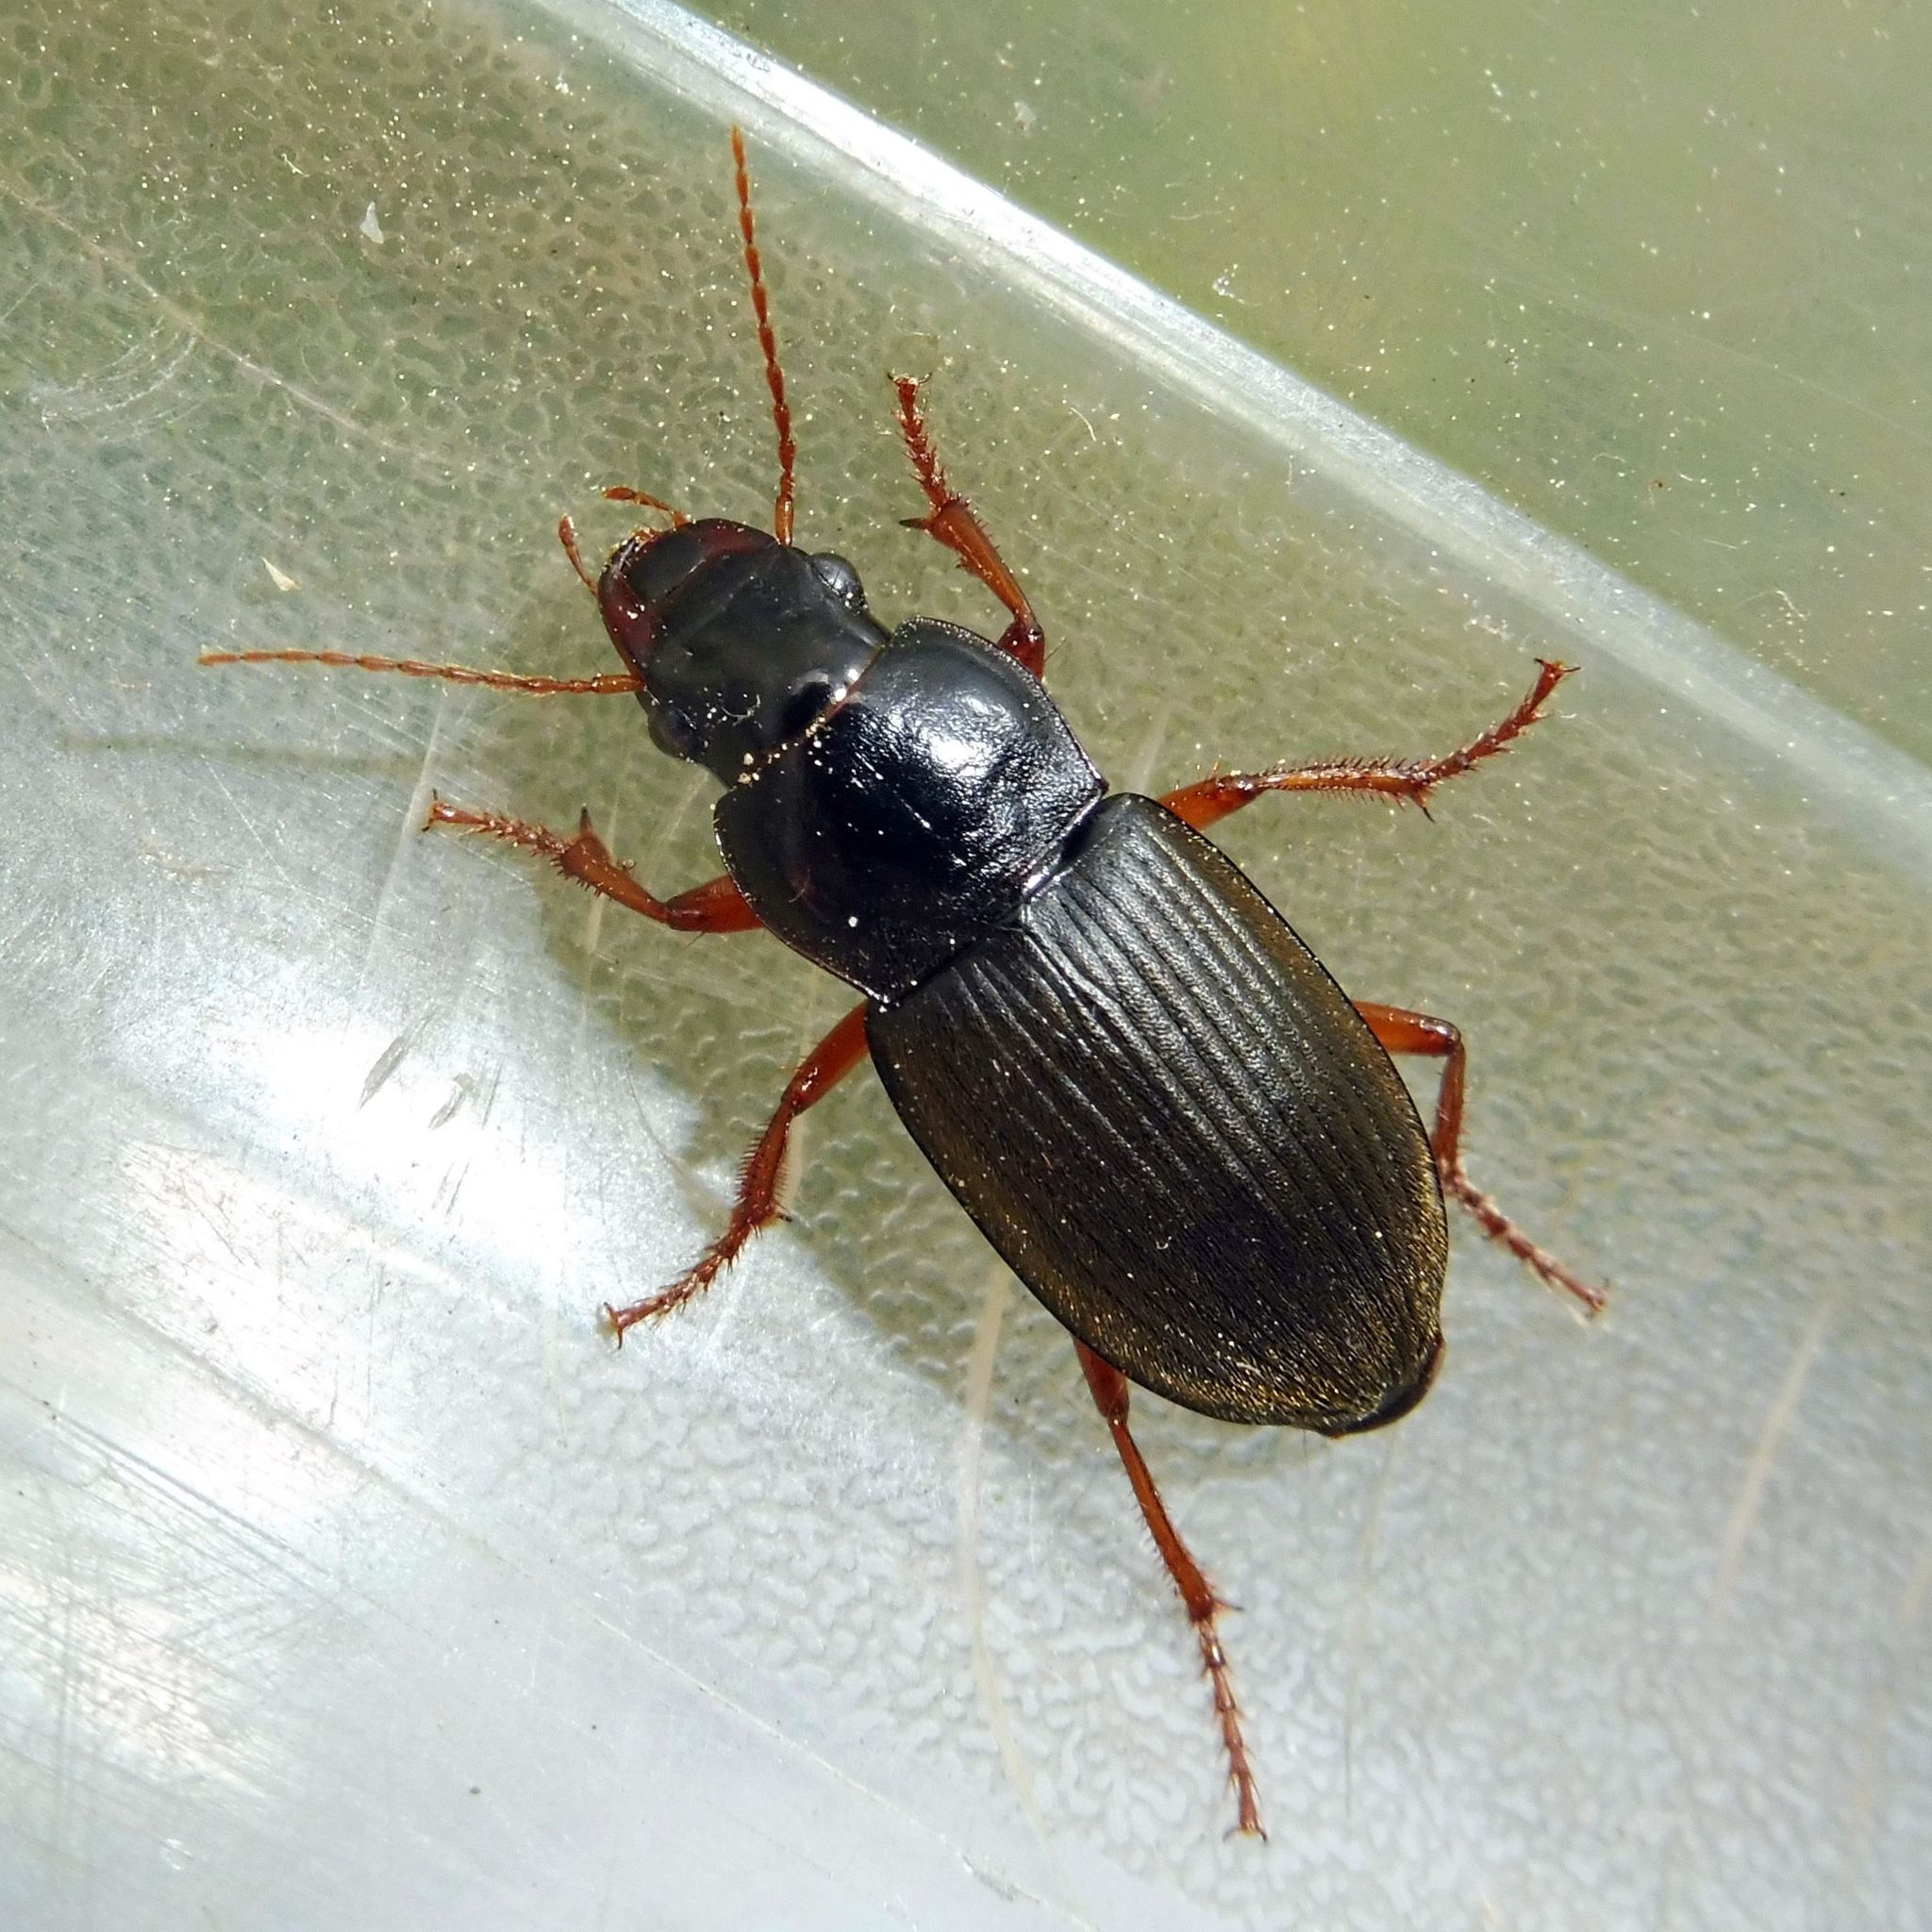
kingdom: Animalia
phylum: Arthropoda
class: Insecta
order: Coleoptera
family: Carabidae
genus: Harpalus
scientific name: Harpalus rufipes
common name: Strawberry harp ground beetle
